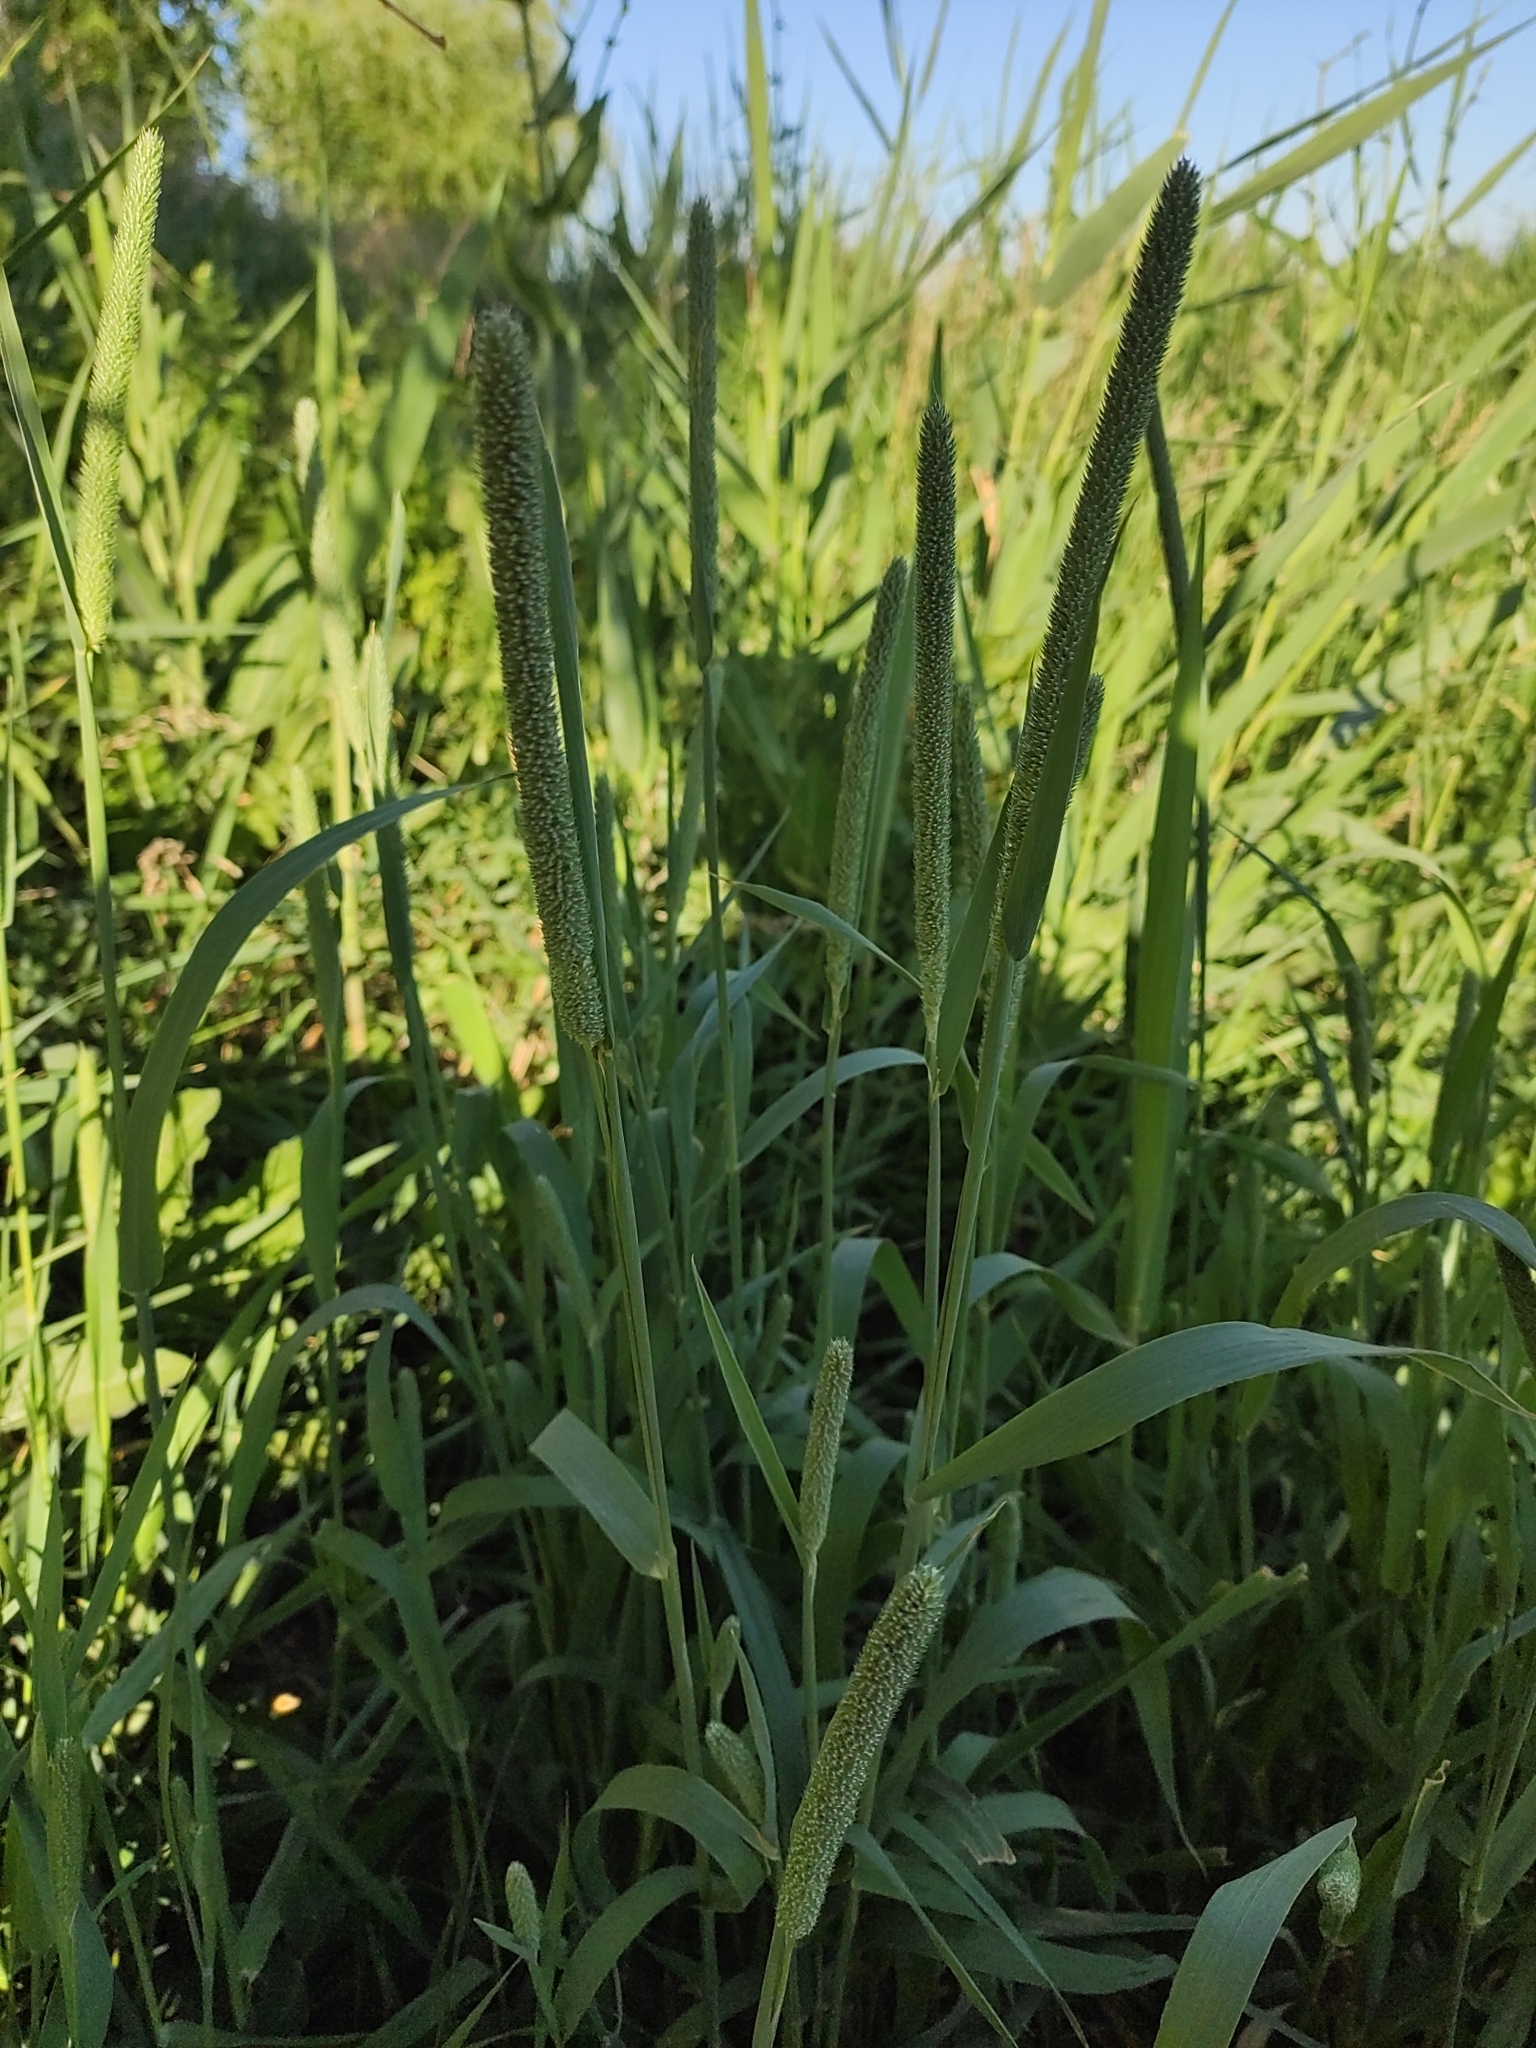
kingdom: Plantae
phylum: Tracheophyta
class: Liliopsida
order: Poales
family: Poaceae
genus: Phleum
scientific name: Phleum pratense
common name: Timothy grass
